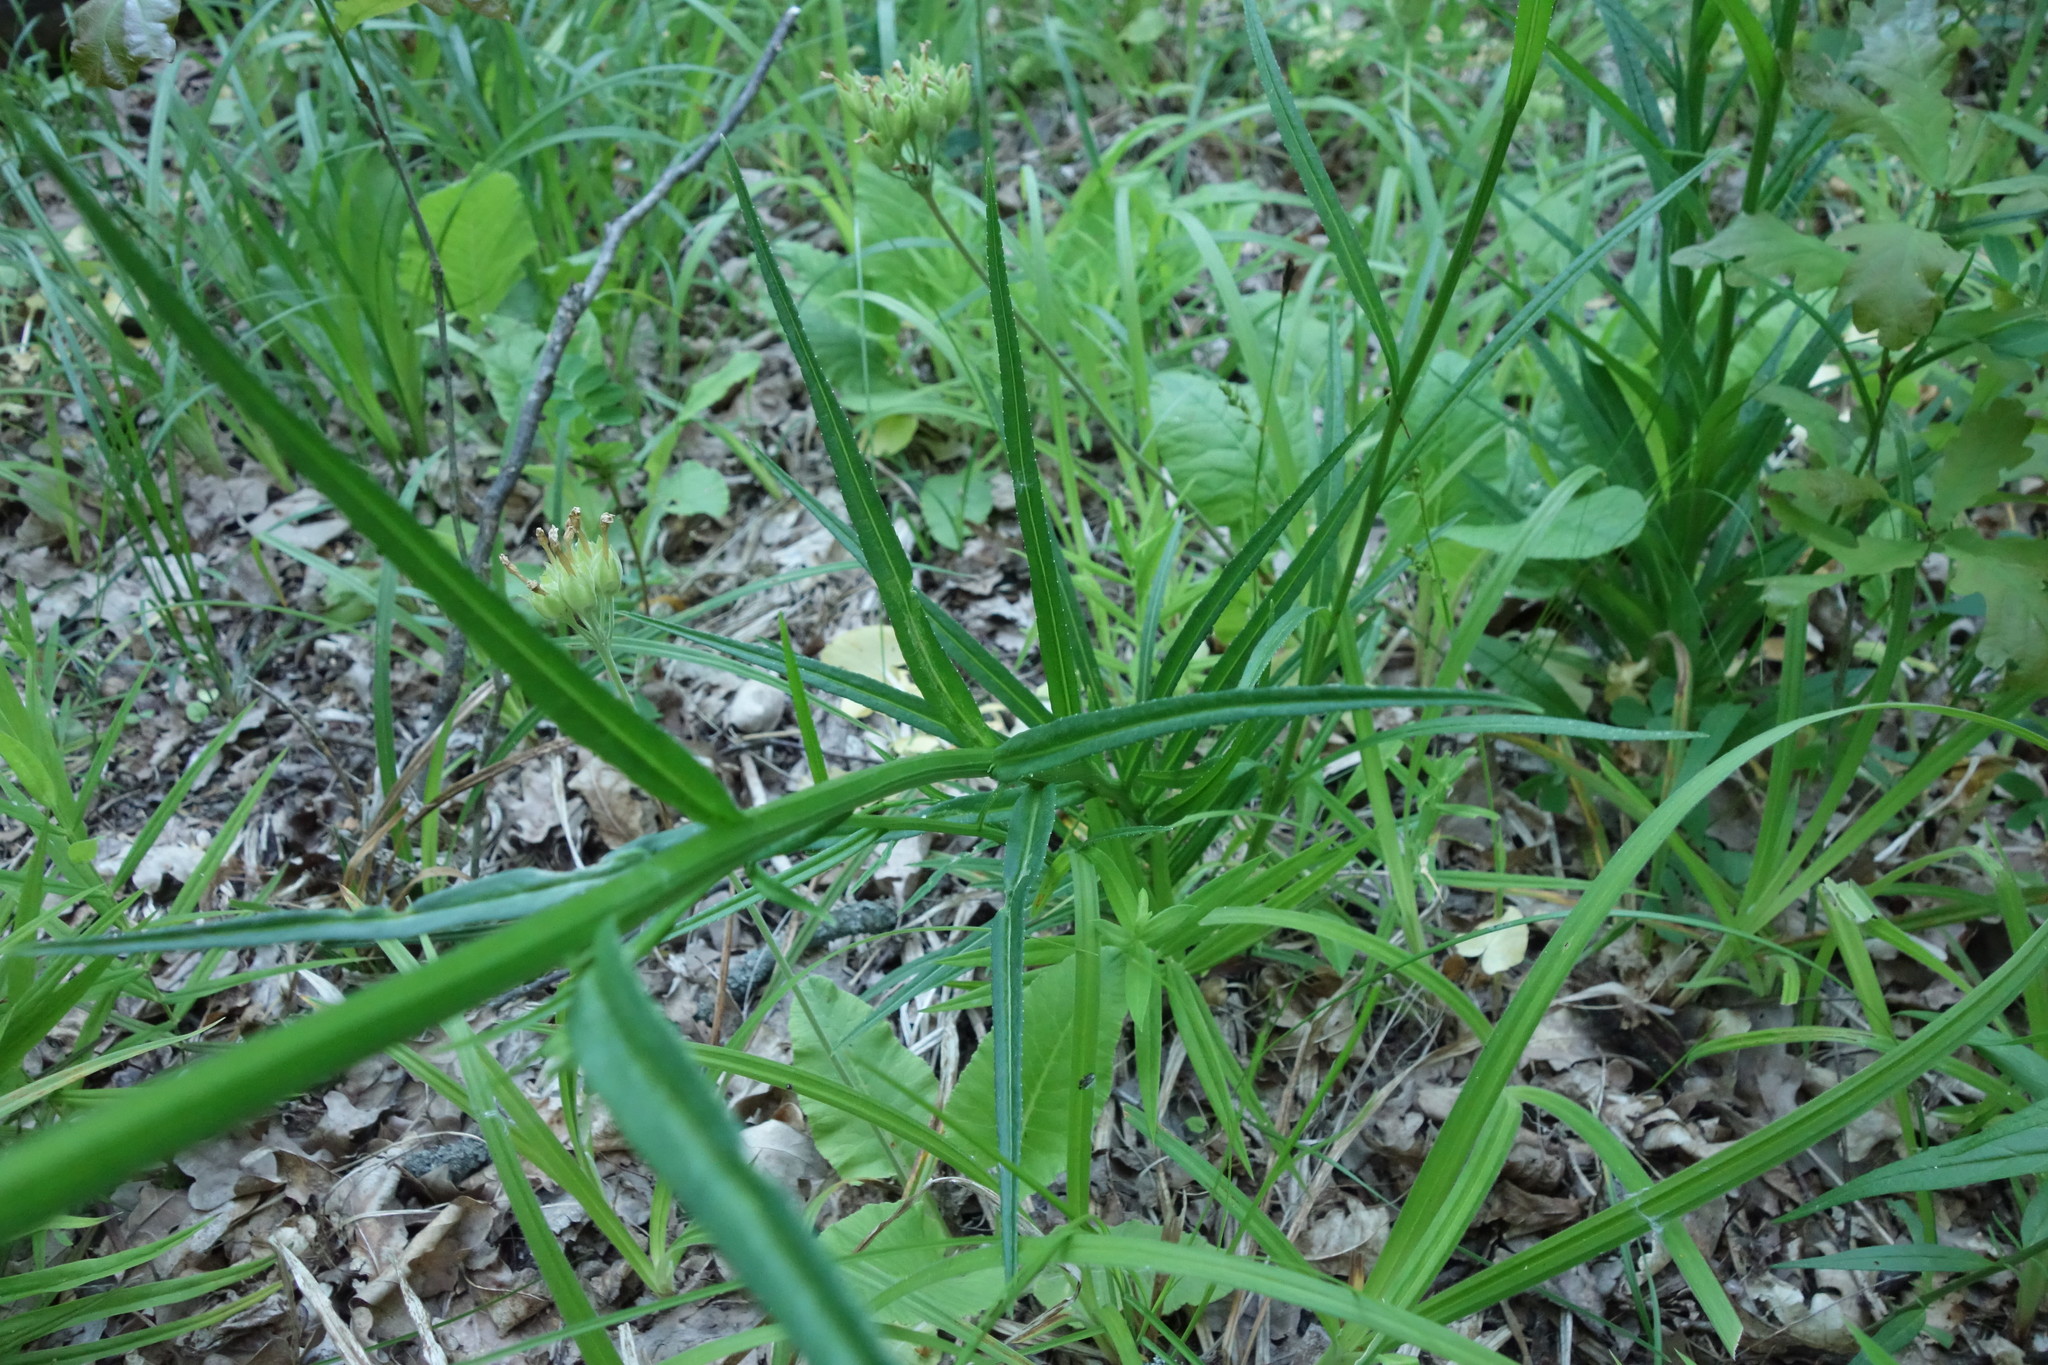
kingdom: Plantae
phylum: Tracheophyta
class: Magnoliopsida
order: Asterales
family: Campanulaceae
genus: Campanula
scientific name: Campanula persicifolia
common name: Peach-leaved bellflower
